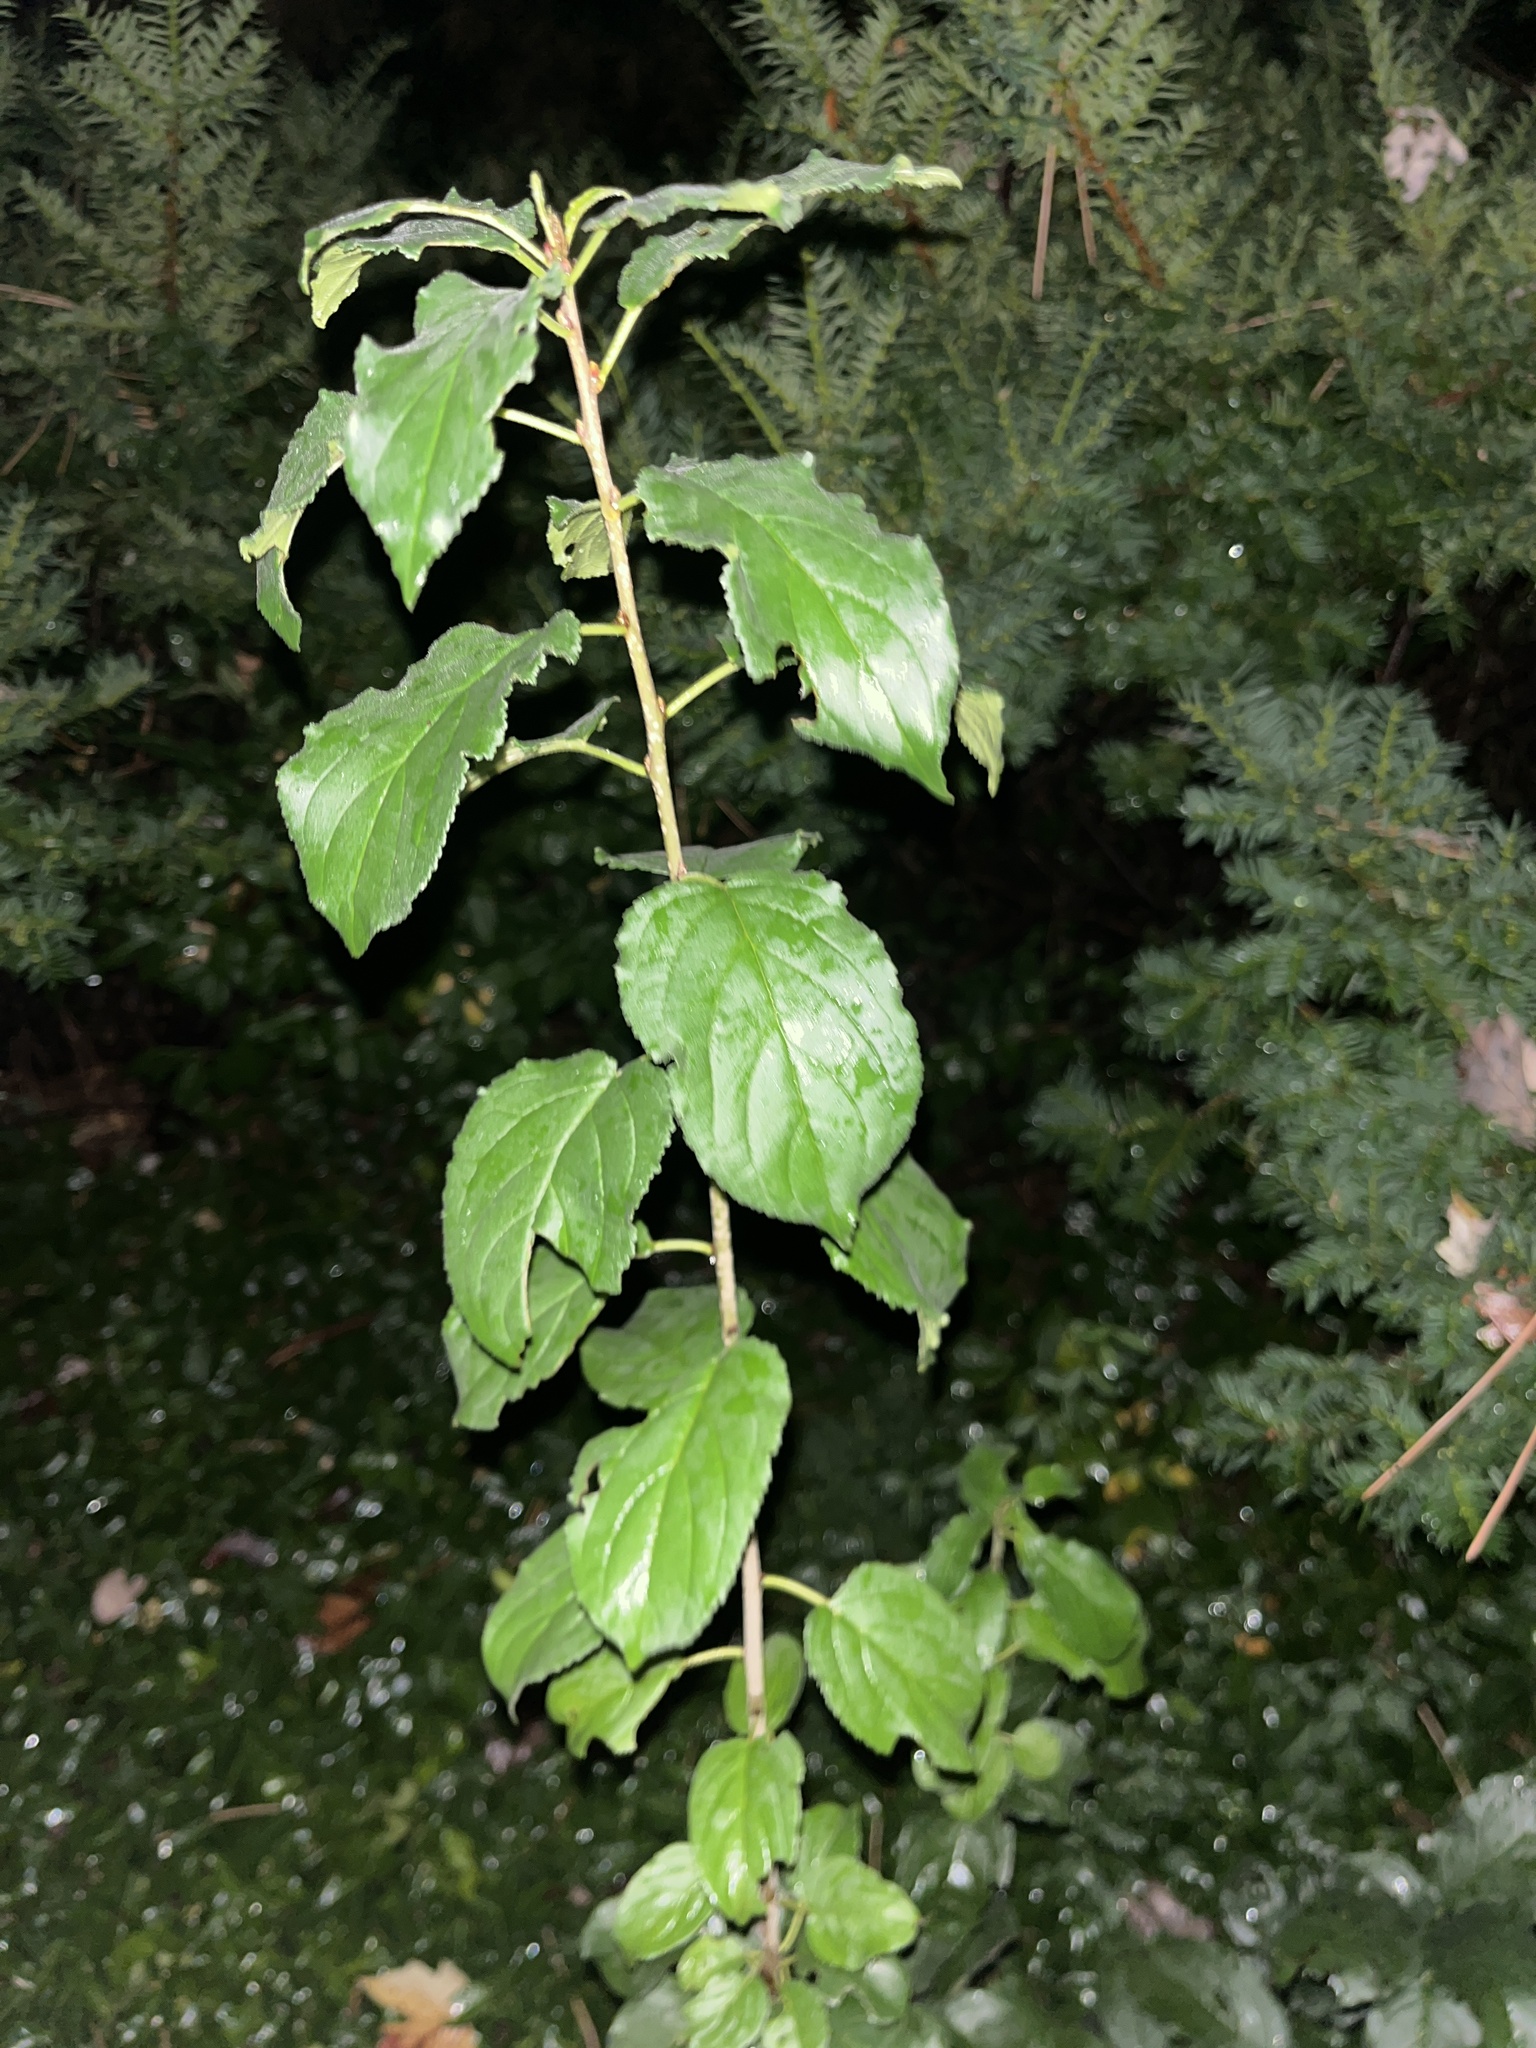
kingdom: Plantae
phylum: Tracheophyta
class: Magnoliopsida
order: Rosales
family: Rhamnaceae
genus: Rhamnus
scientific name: Rhamnus cathartica
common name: Common buckthorn
